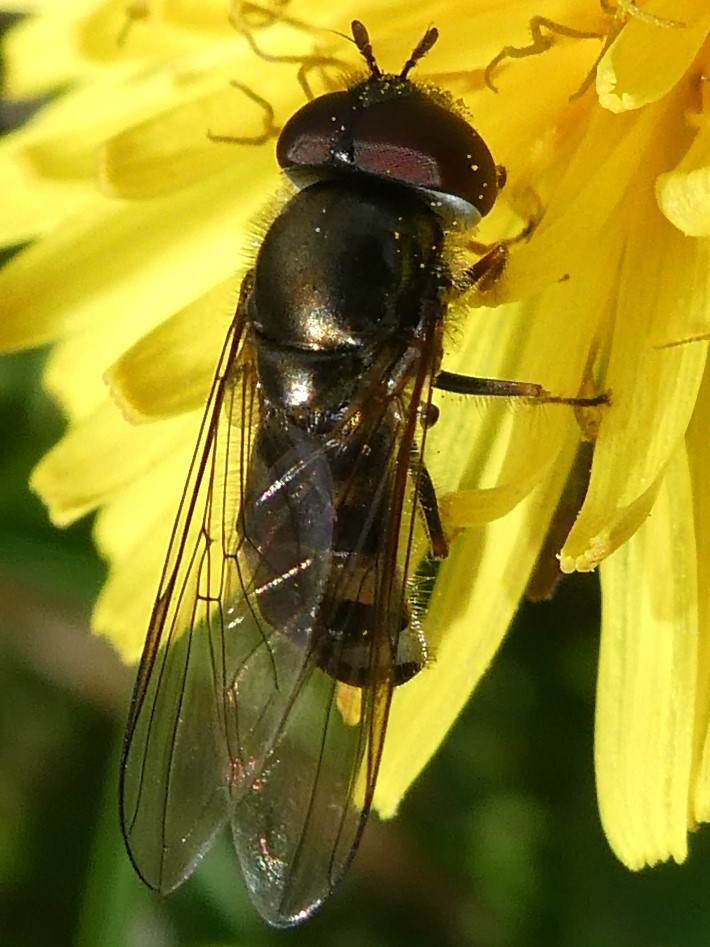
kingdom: Animalia
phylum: Arthropoda
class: Insecta
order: Diptera
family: Syrphidae
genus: Platycheirus
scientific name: Platycheirus
